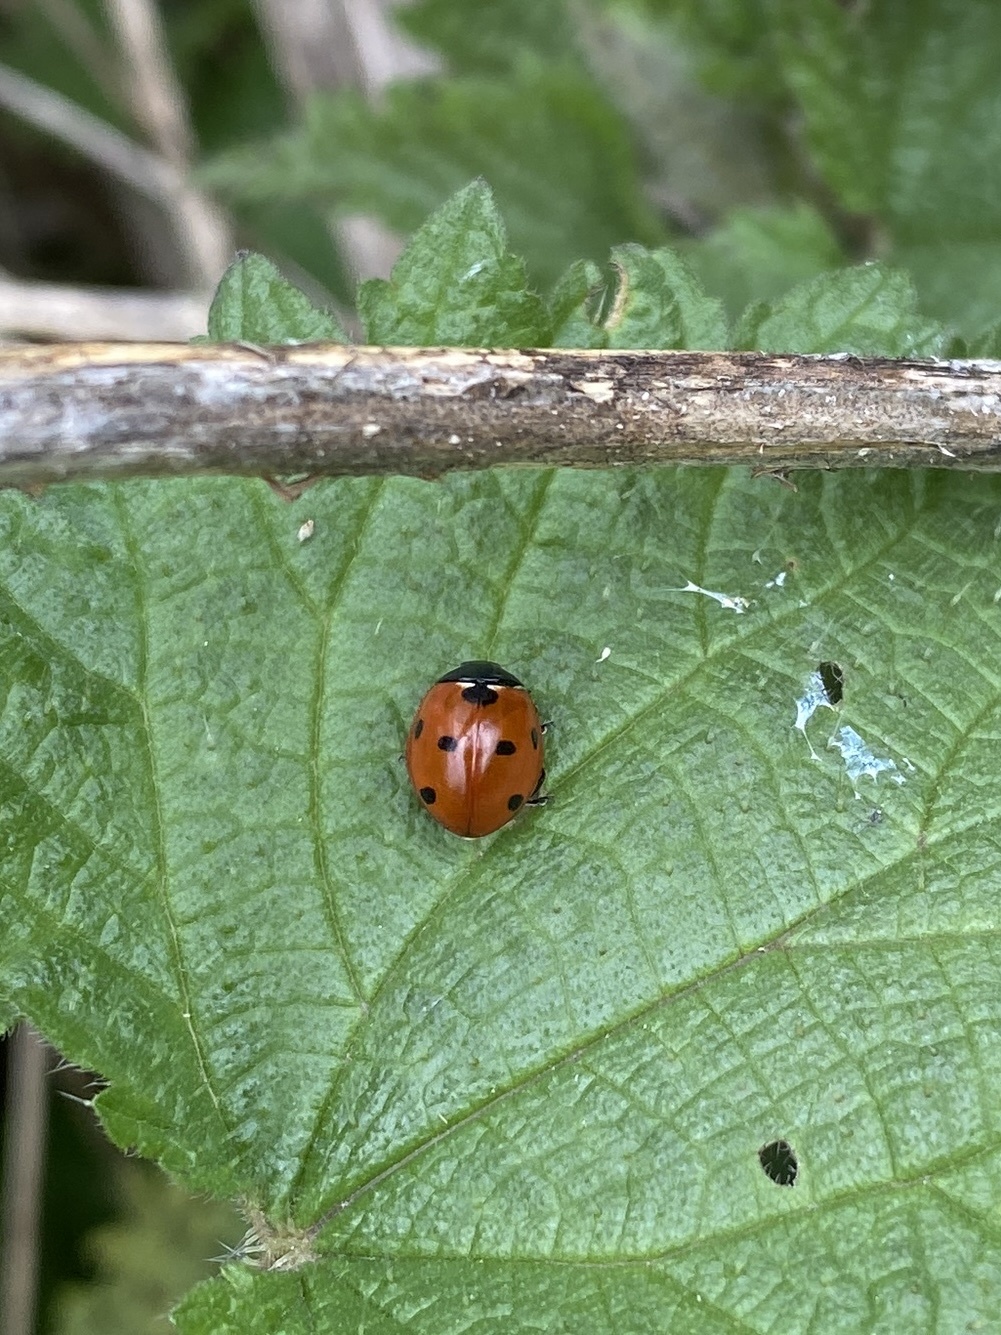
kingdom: Animalia
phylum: Arthropoda
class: Insecta
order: Coleoptera
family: Coccinellidae
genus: Coccinella
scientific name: Coccinella septempunctata
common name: Sevenspotted lady beetle
